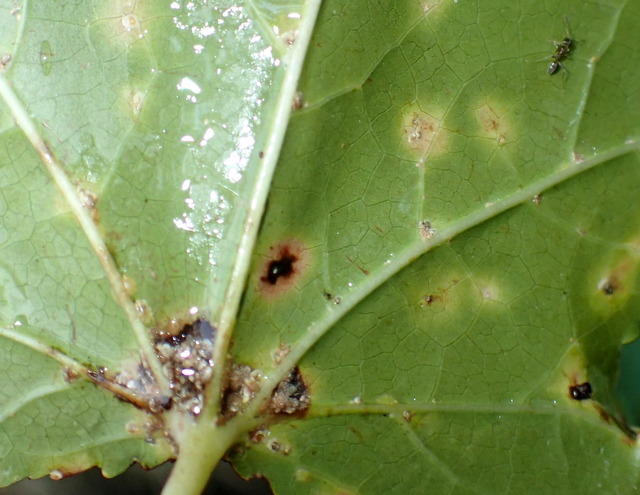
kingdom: Animalia
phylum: Arthropoda
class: Insecta
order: Hymenoptera
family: Formicidae
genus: Linepithema
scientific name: Linepithema humile
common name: Argentine ant
